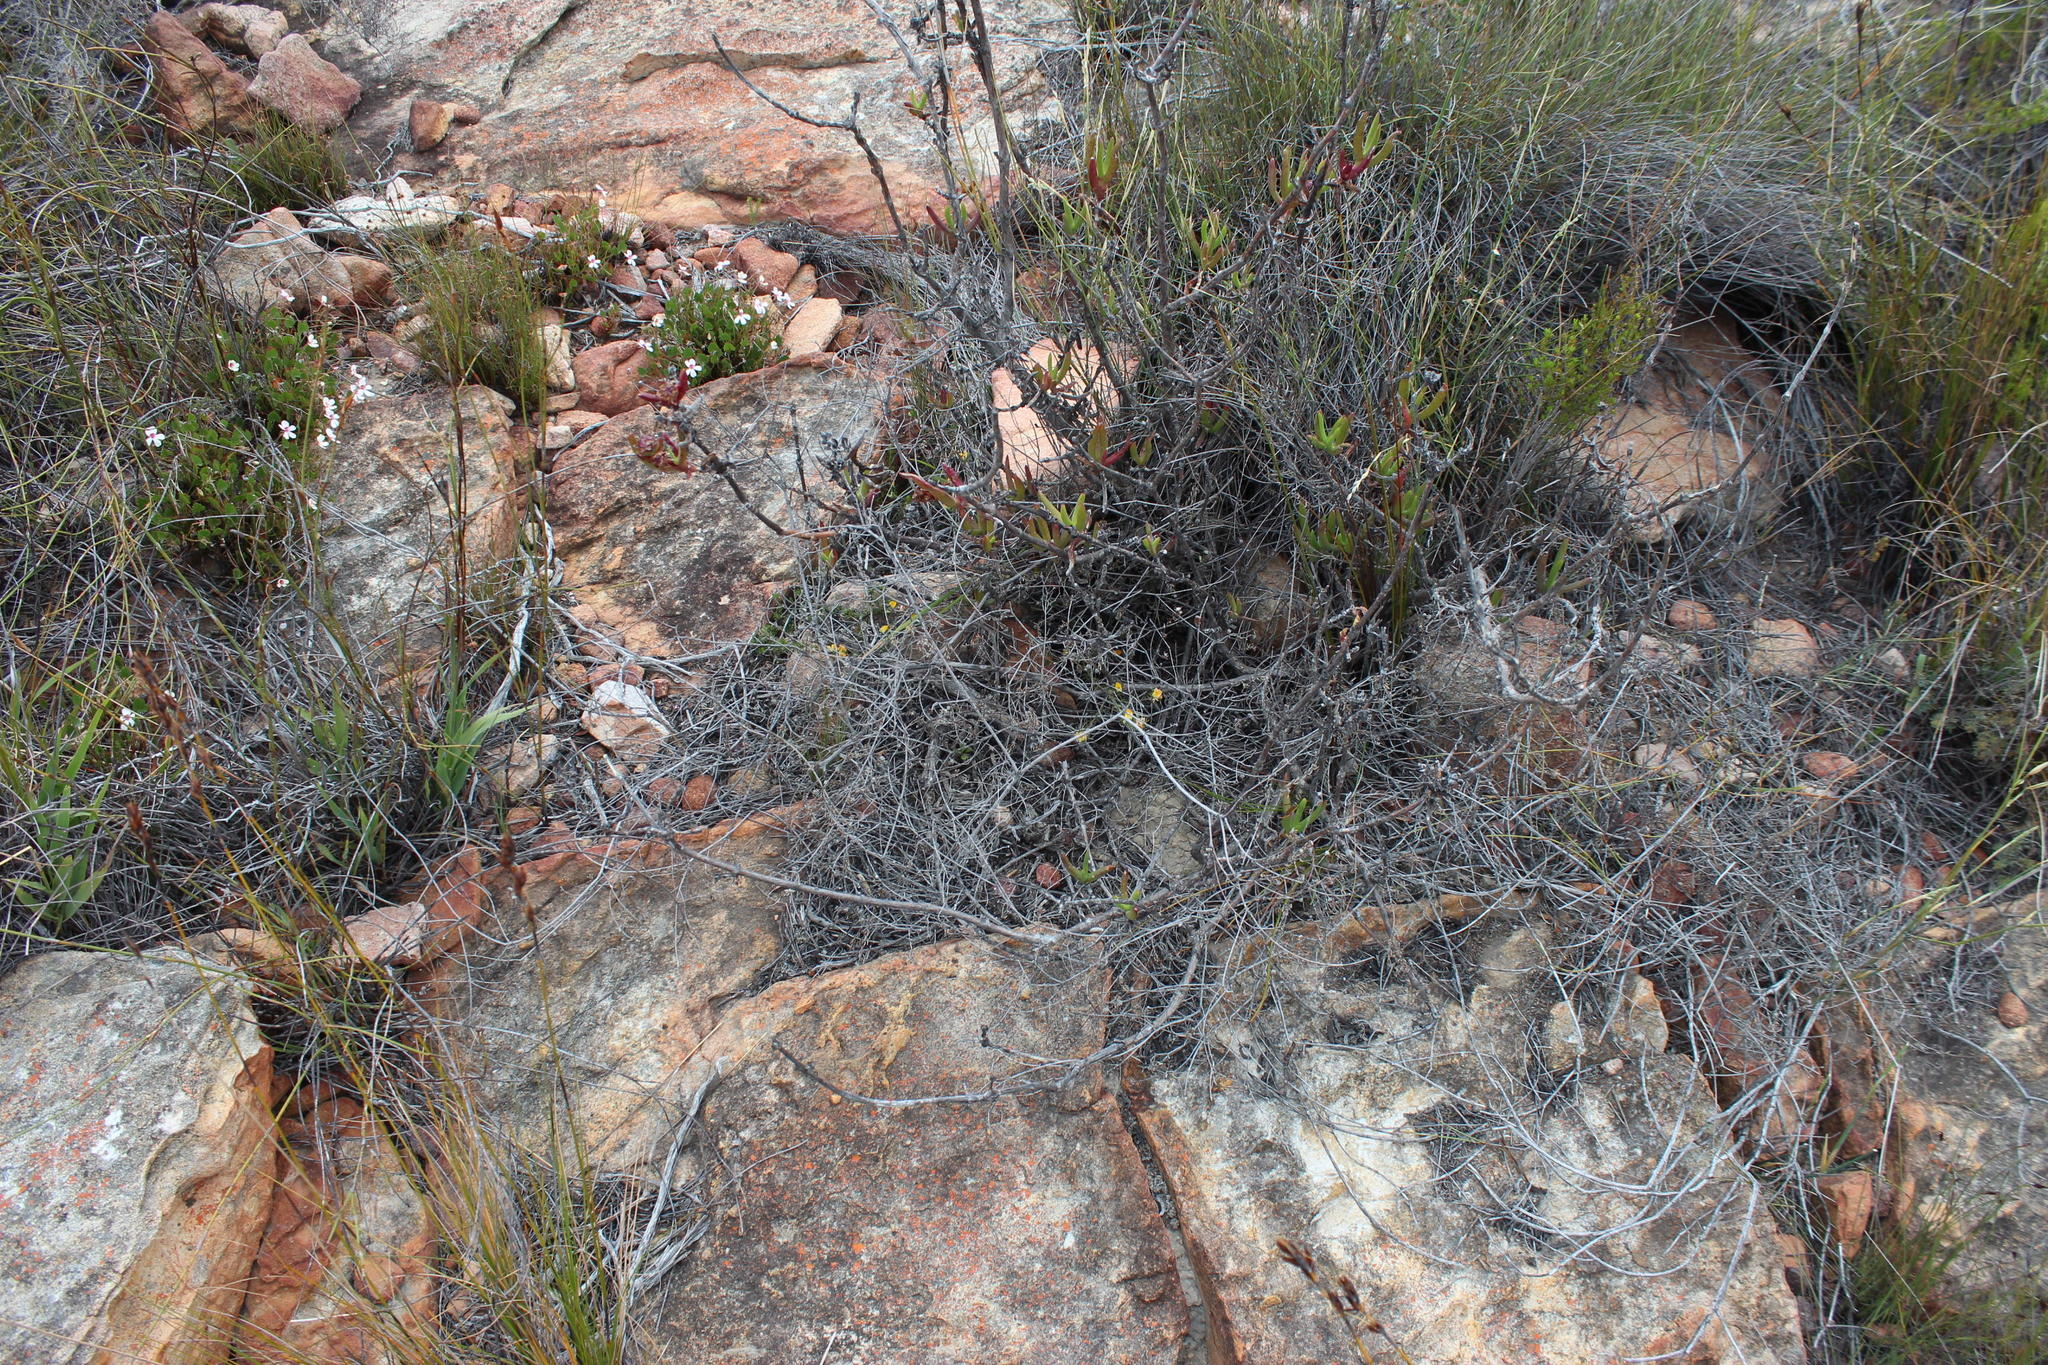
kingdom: Plantae
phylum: Tracheophyta
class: Magnoliopsida
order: Fabales
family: Fabaceae
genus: Aspalathus
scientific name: Aspalathus stenophylla
